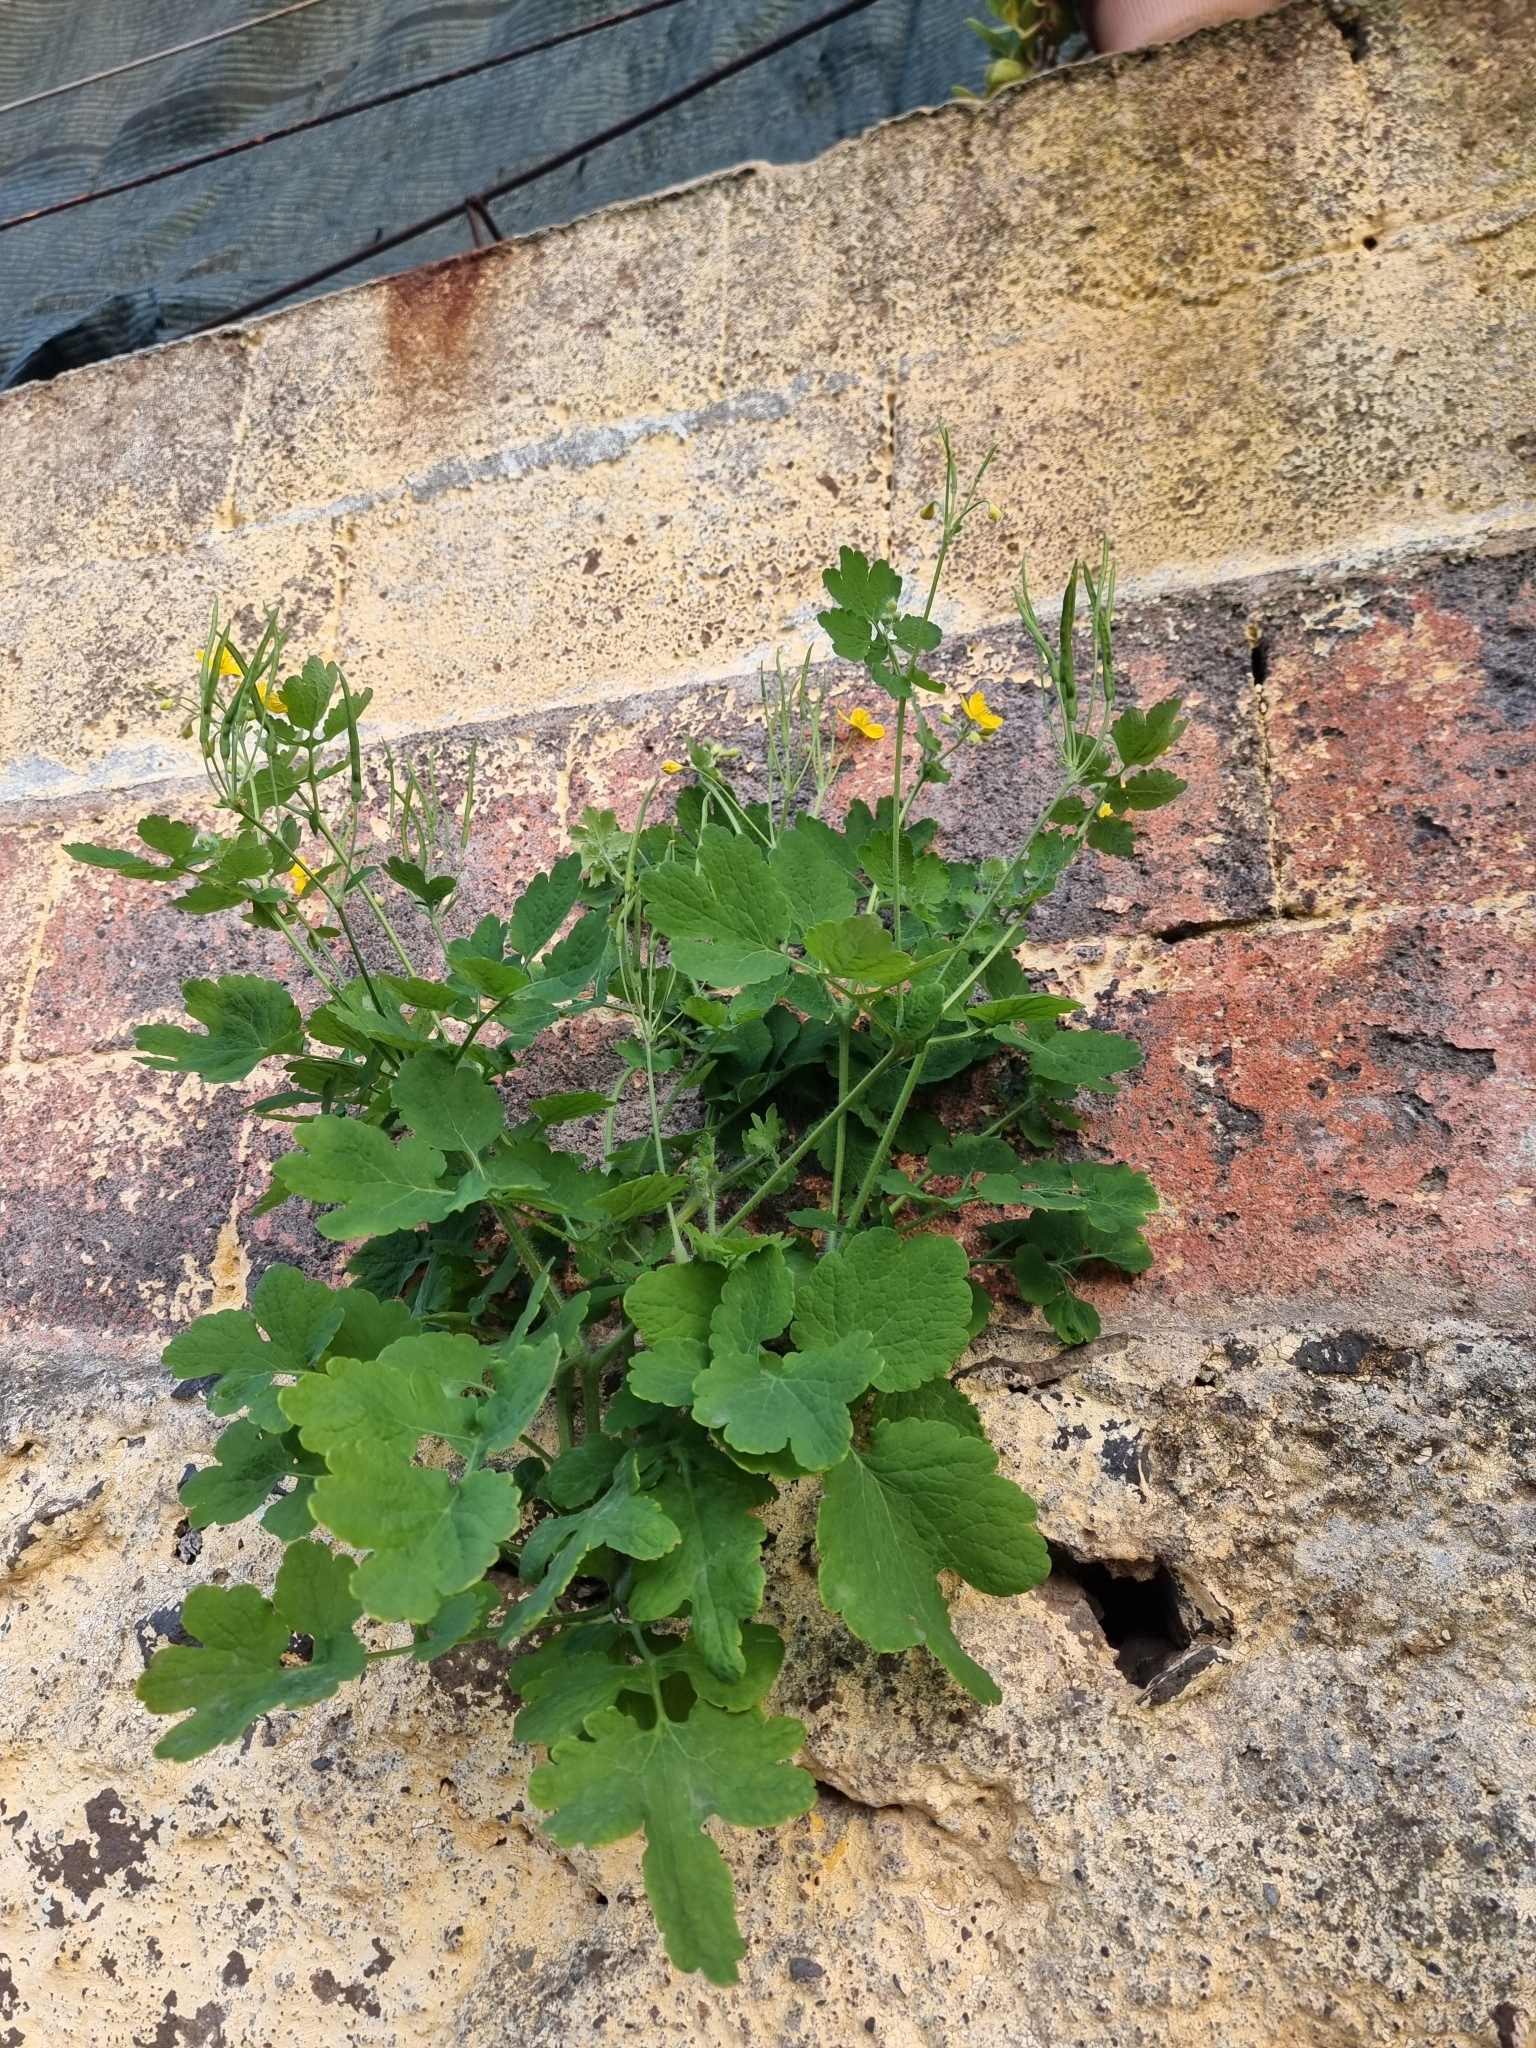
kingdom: Plantae
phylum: Tracheophyta
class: Magnoliopsida
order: Ranunculales
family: Papaveraceae
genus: Chelidonium
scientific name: Chelidonium majus
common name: Greater celandine
